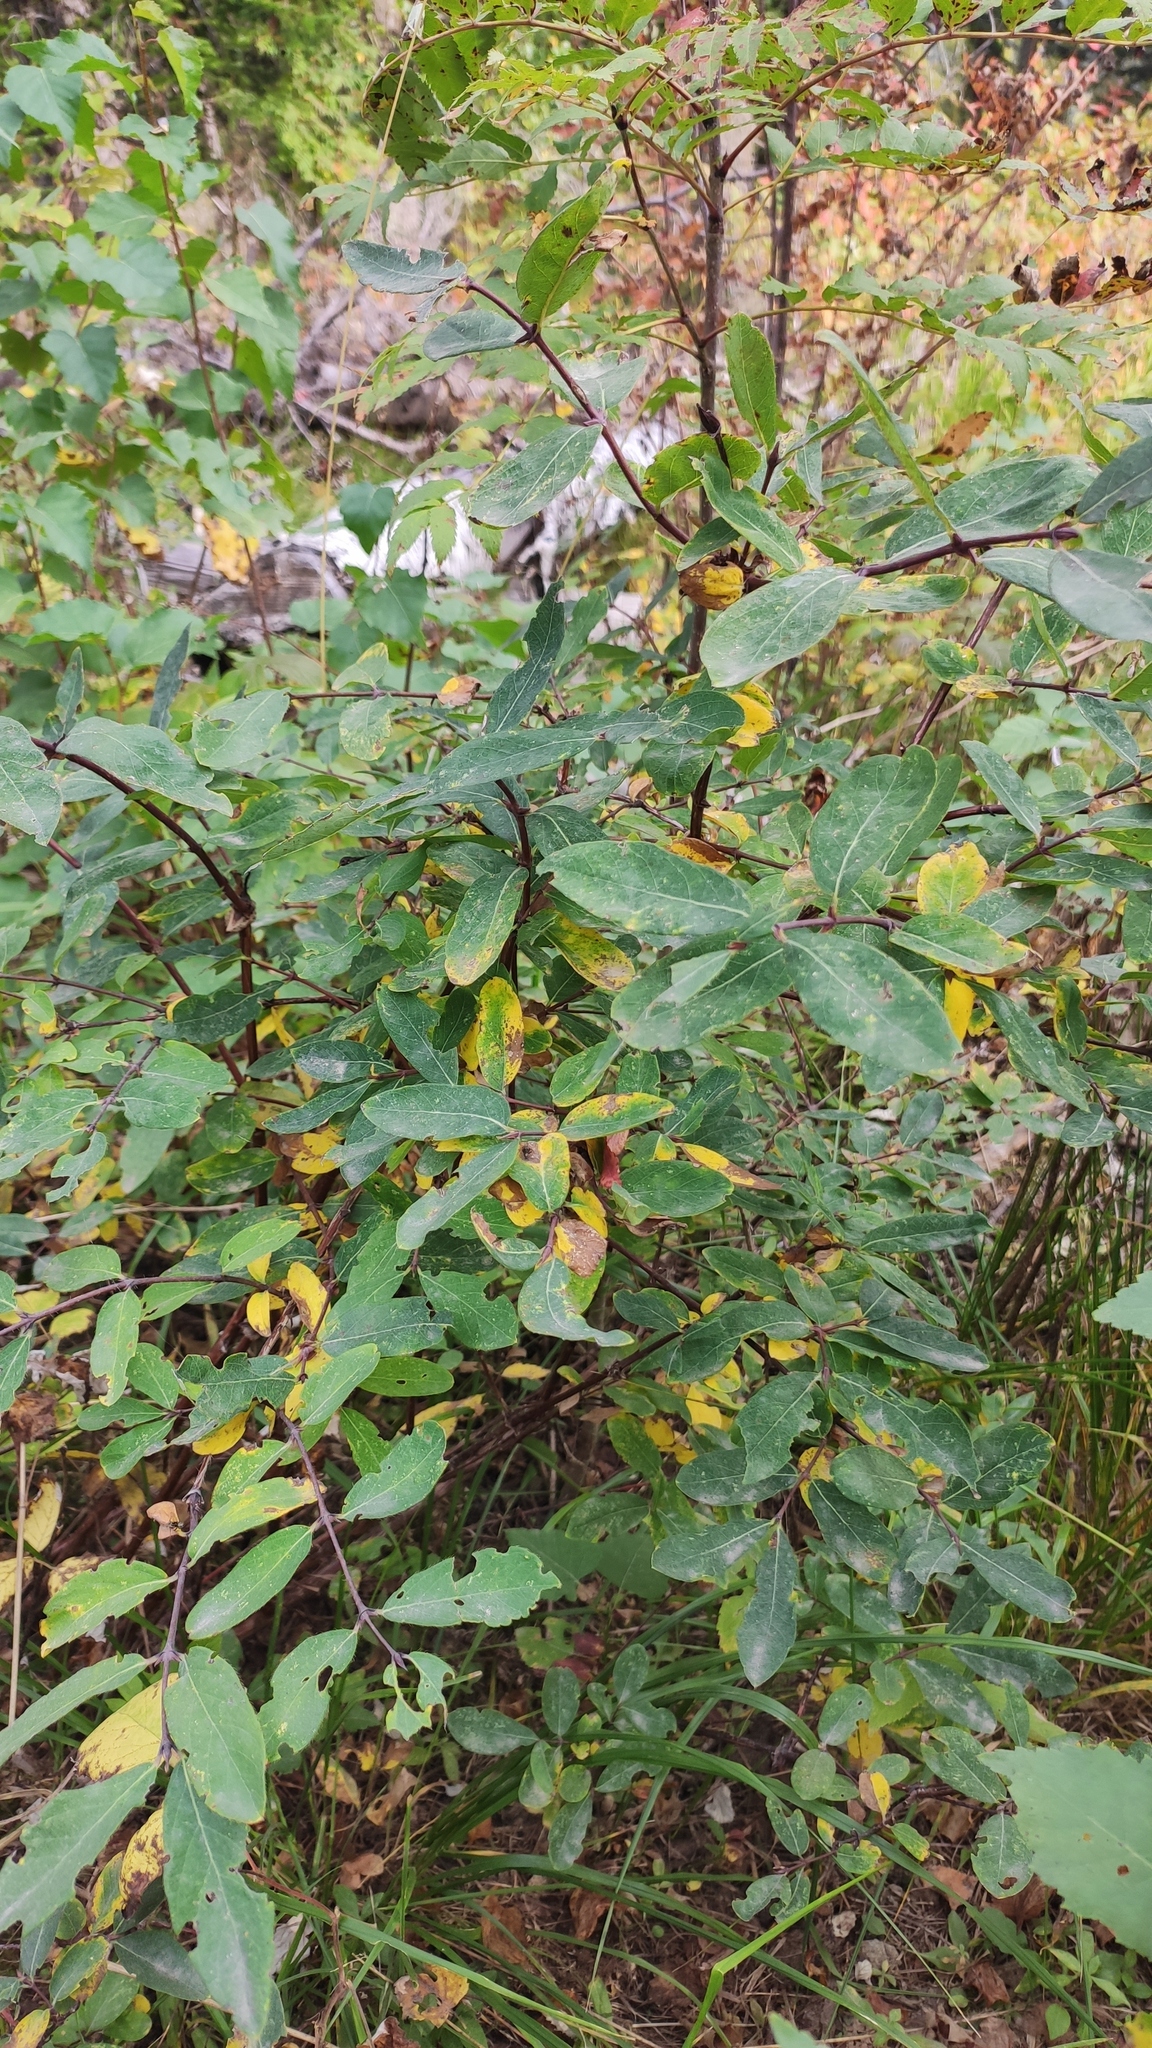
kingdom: Plantae
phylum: Tracheophyta
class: Magnoliopsida
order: Dipsacales
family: Caprifoliaceae
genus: Lonicera
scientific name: Lonicera caerulea
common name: Blue honeysuckle
